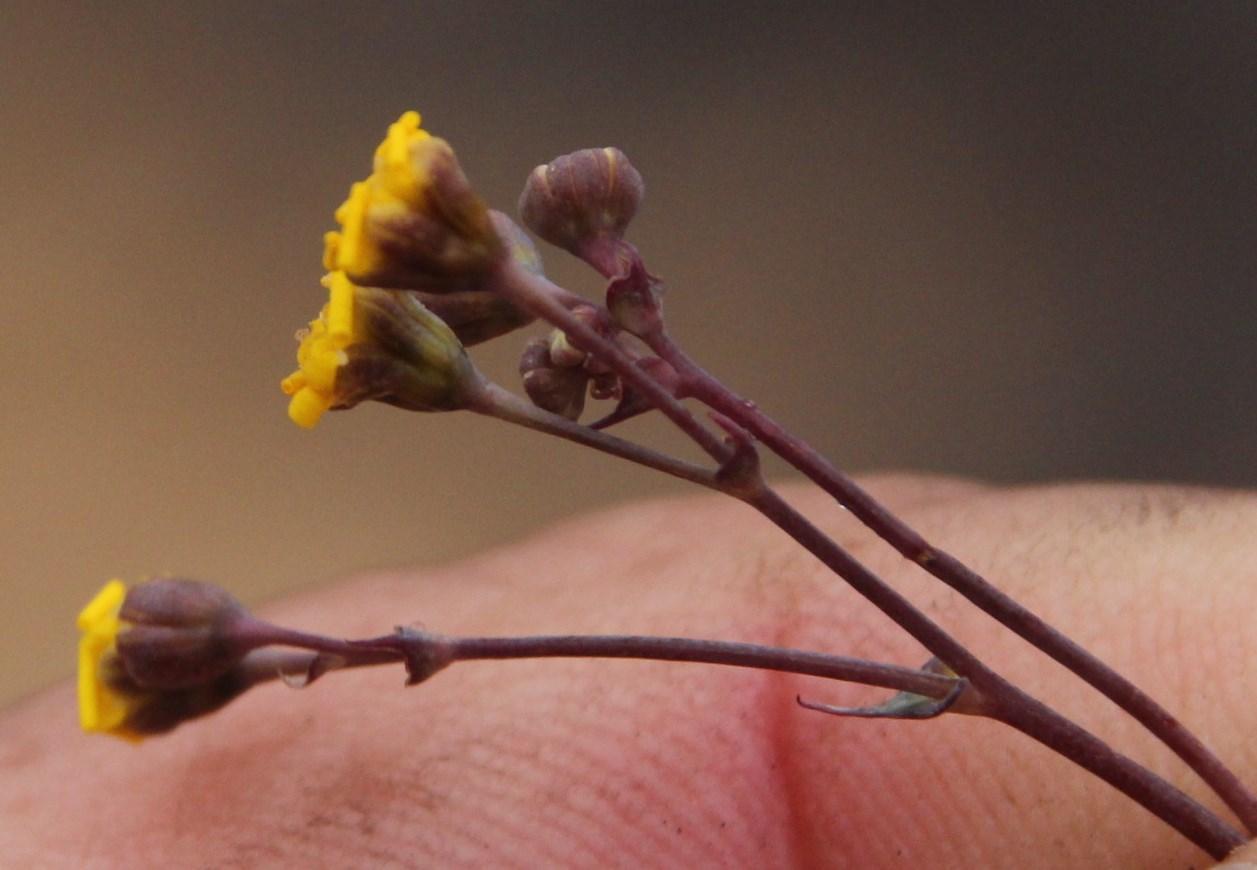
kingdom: Plantae
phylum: Tracheophyta
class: Magnoliopsida
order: Asterales
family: Asteraceae
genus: Gymnodiscus
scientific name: Gymnodiscus capillaris
